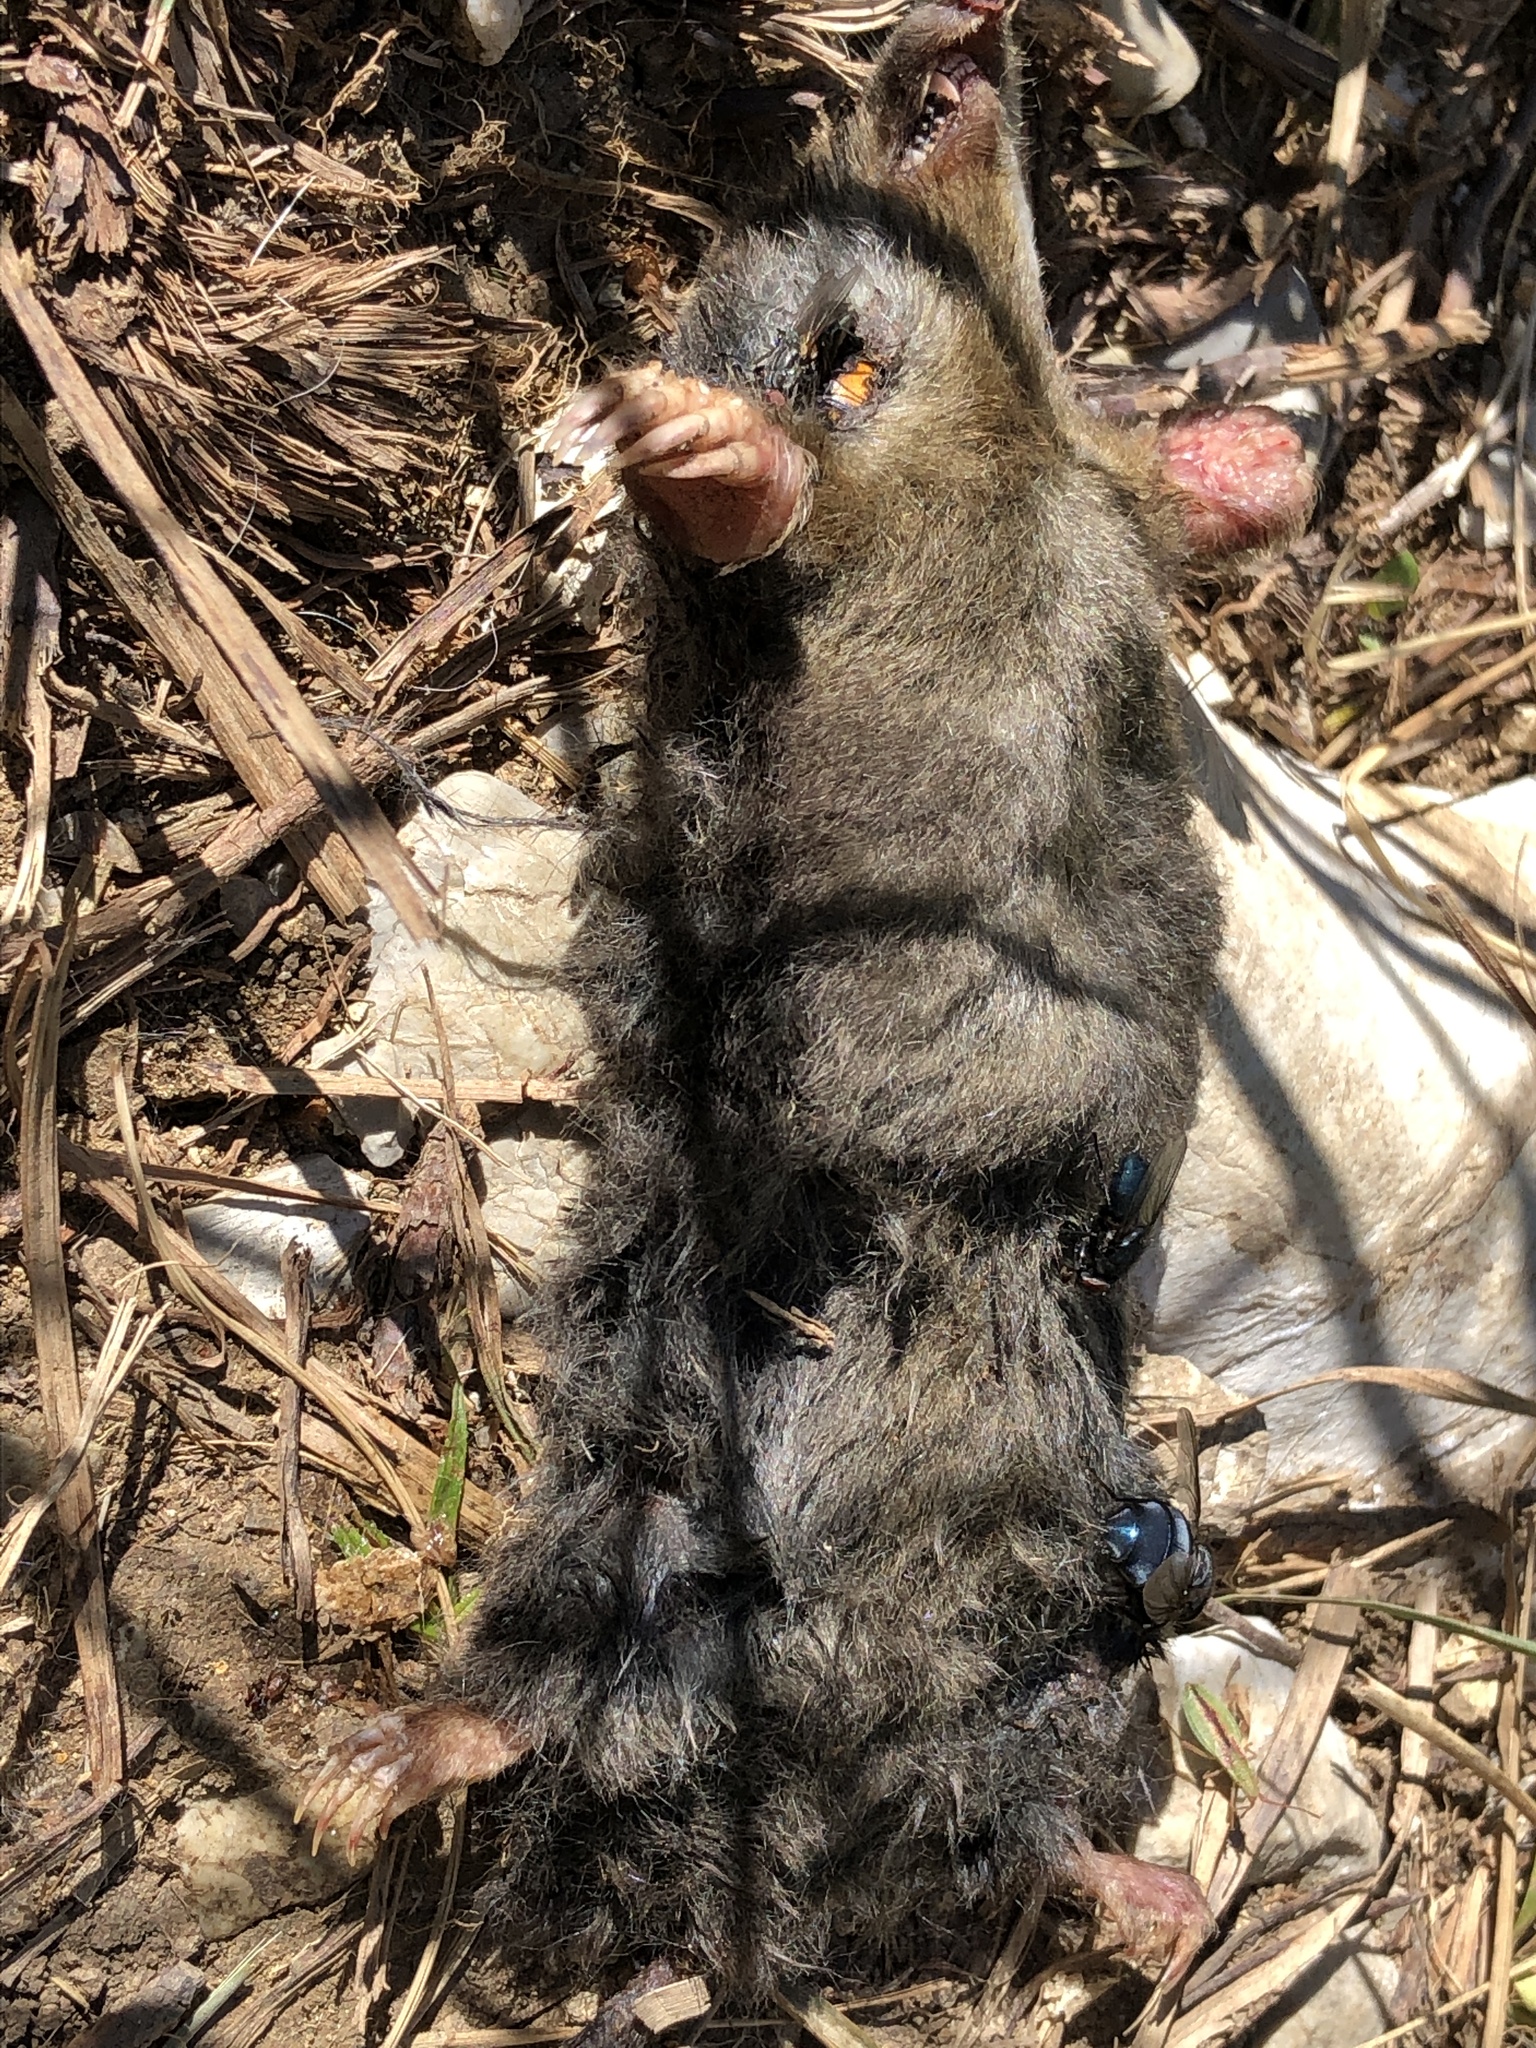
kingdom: Animalia
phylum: Chordata
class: Mammalia
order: Soricomorpha
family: Talpidae
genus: Talpa
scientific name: Talpa
